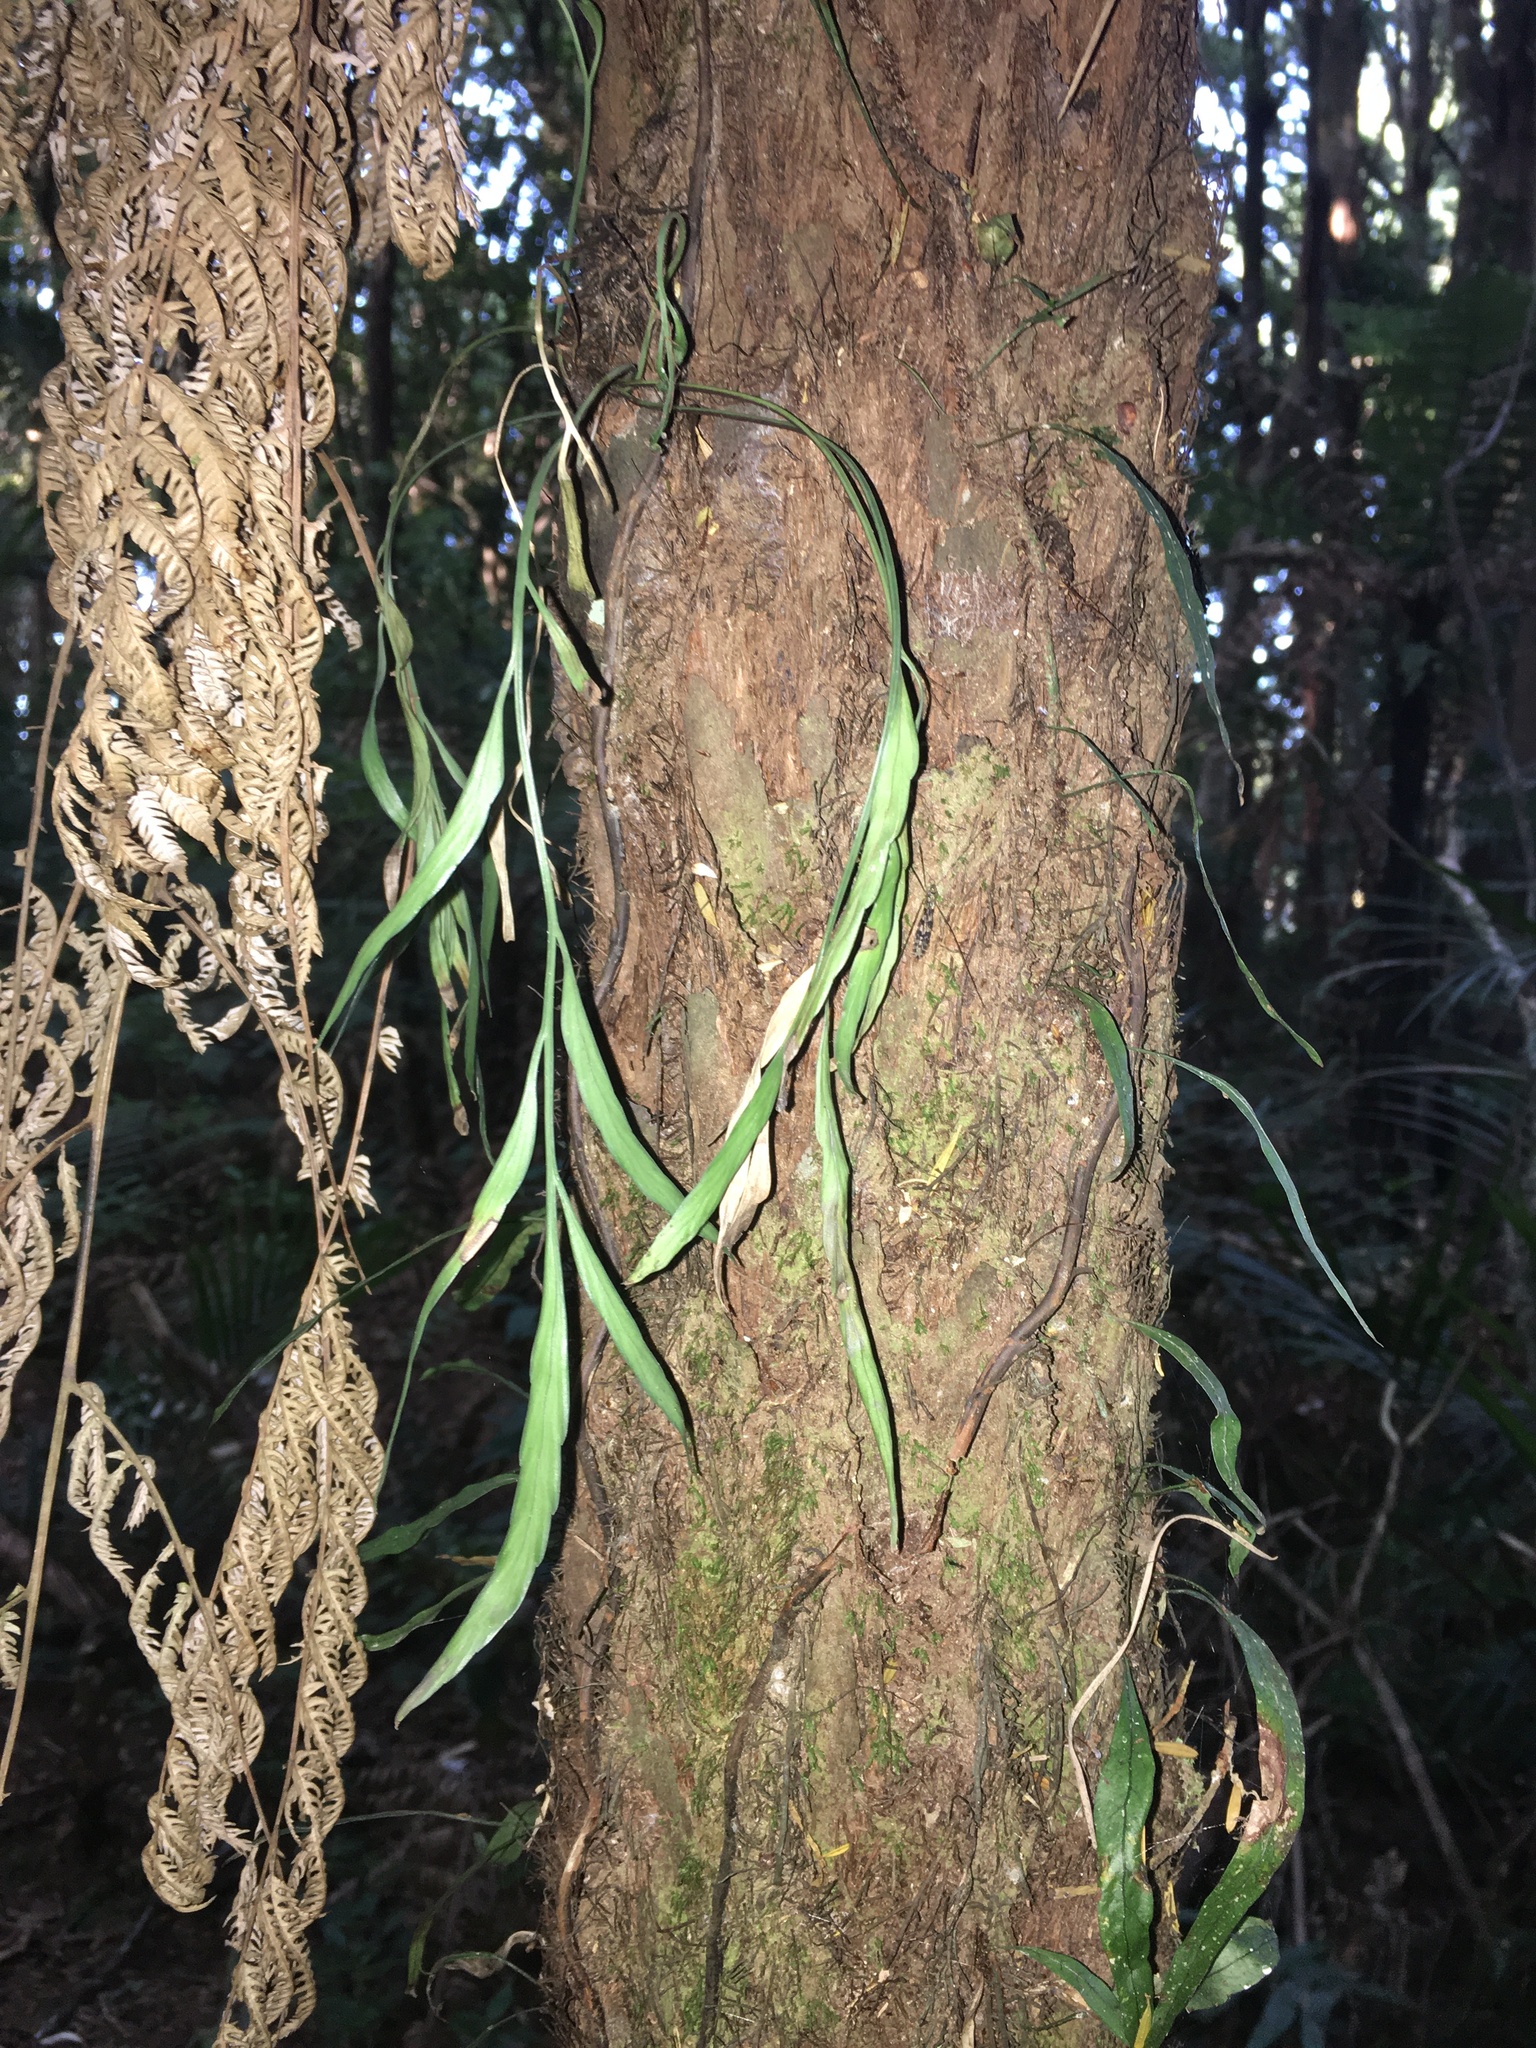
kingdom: Plantae
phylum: Tracheophyta
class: Polypodiopsida
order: Polypodiales
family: Aspleniaceae
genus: Asplenium
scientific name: Asplenium flaccidum
